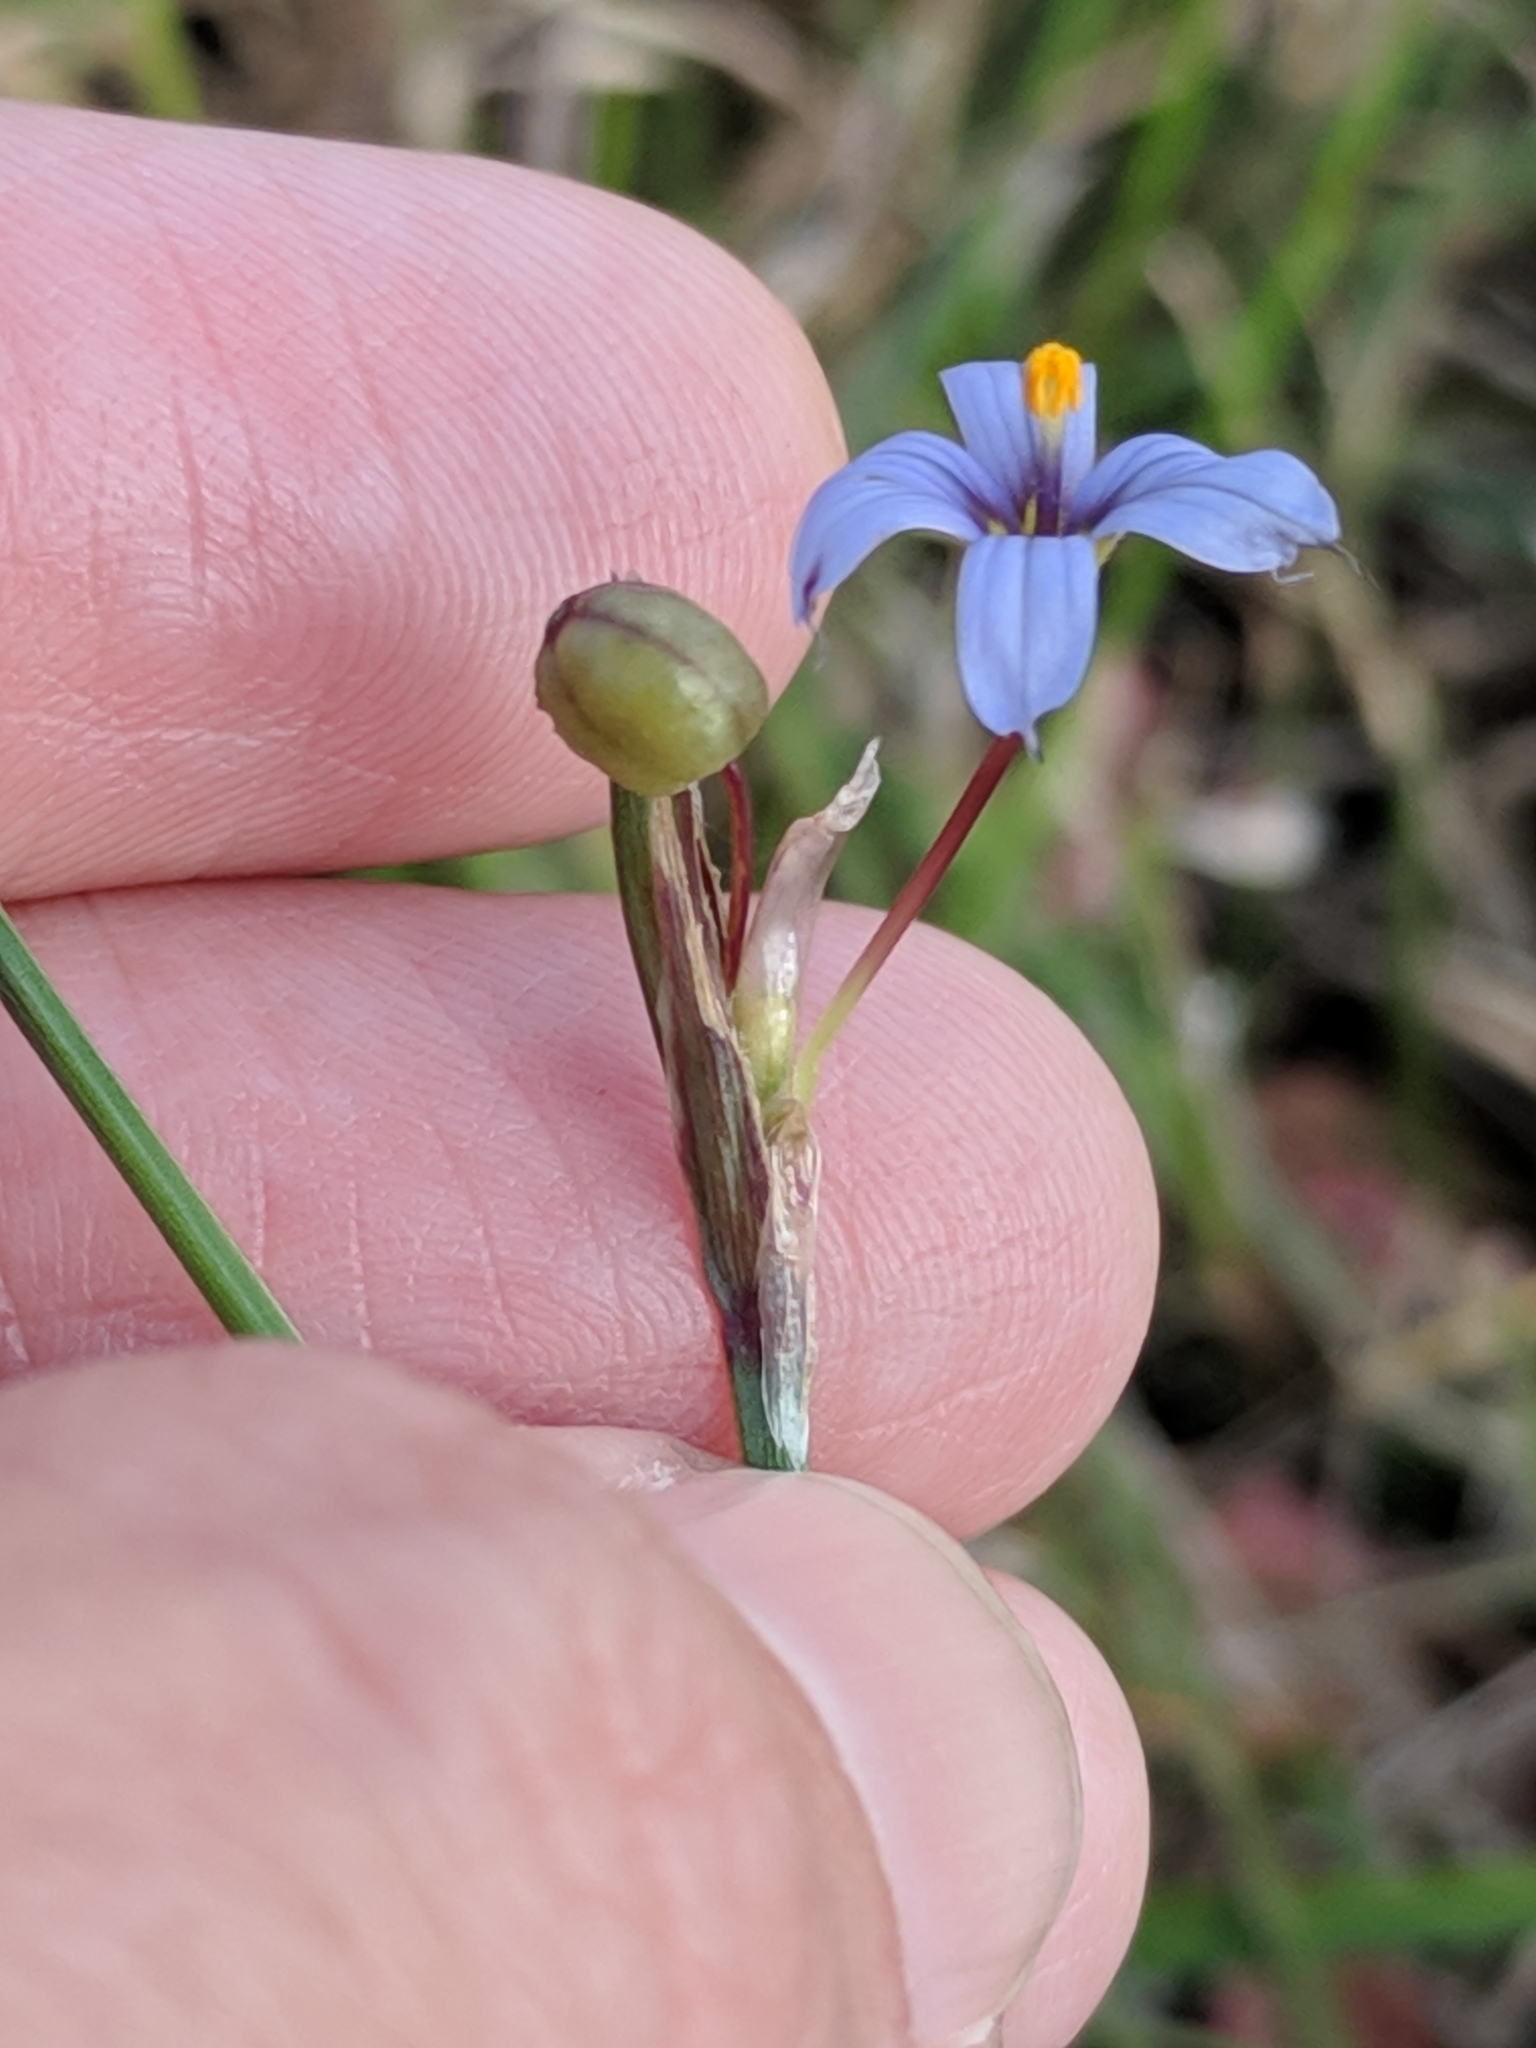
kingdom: Plantae
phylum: Tracheophyta
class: Liliopsida
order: Asparagales
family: Iridaceae
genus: Sisyrinchium
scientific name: Sisyrinchium biforme
